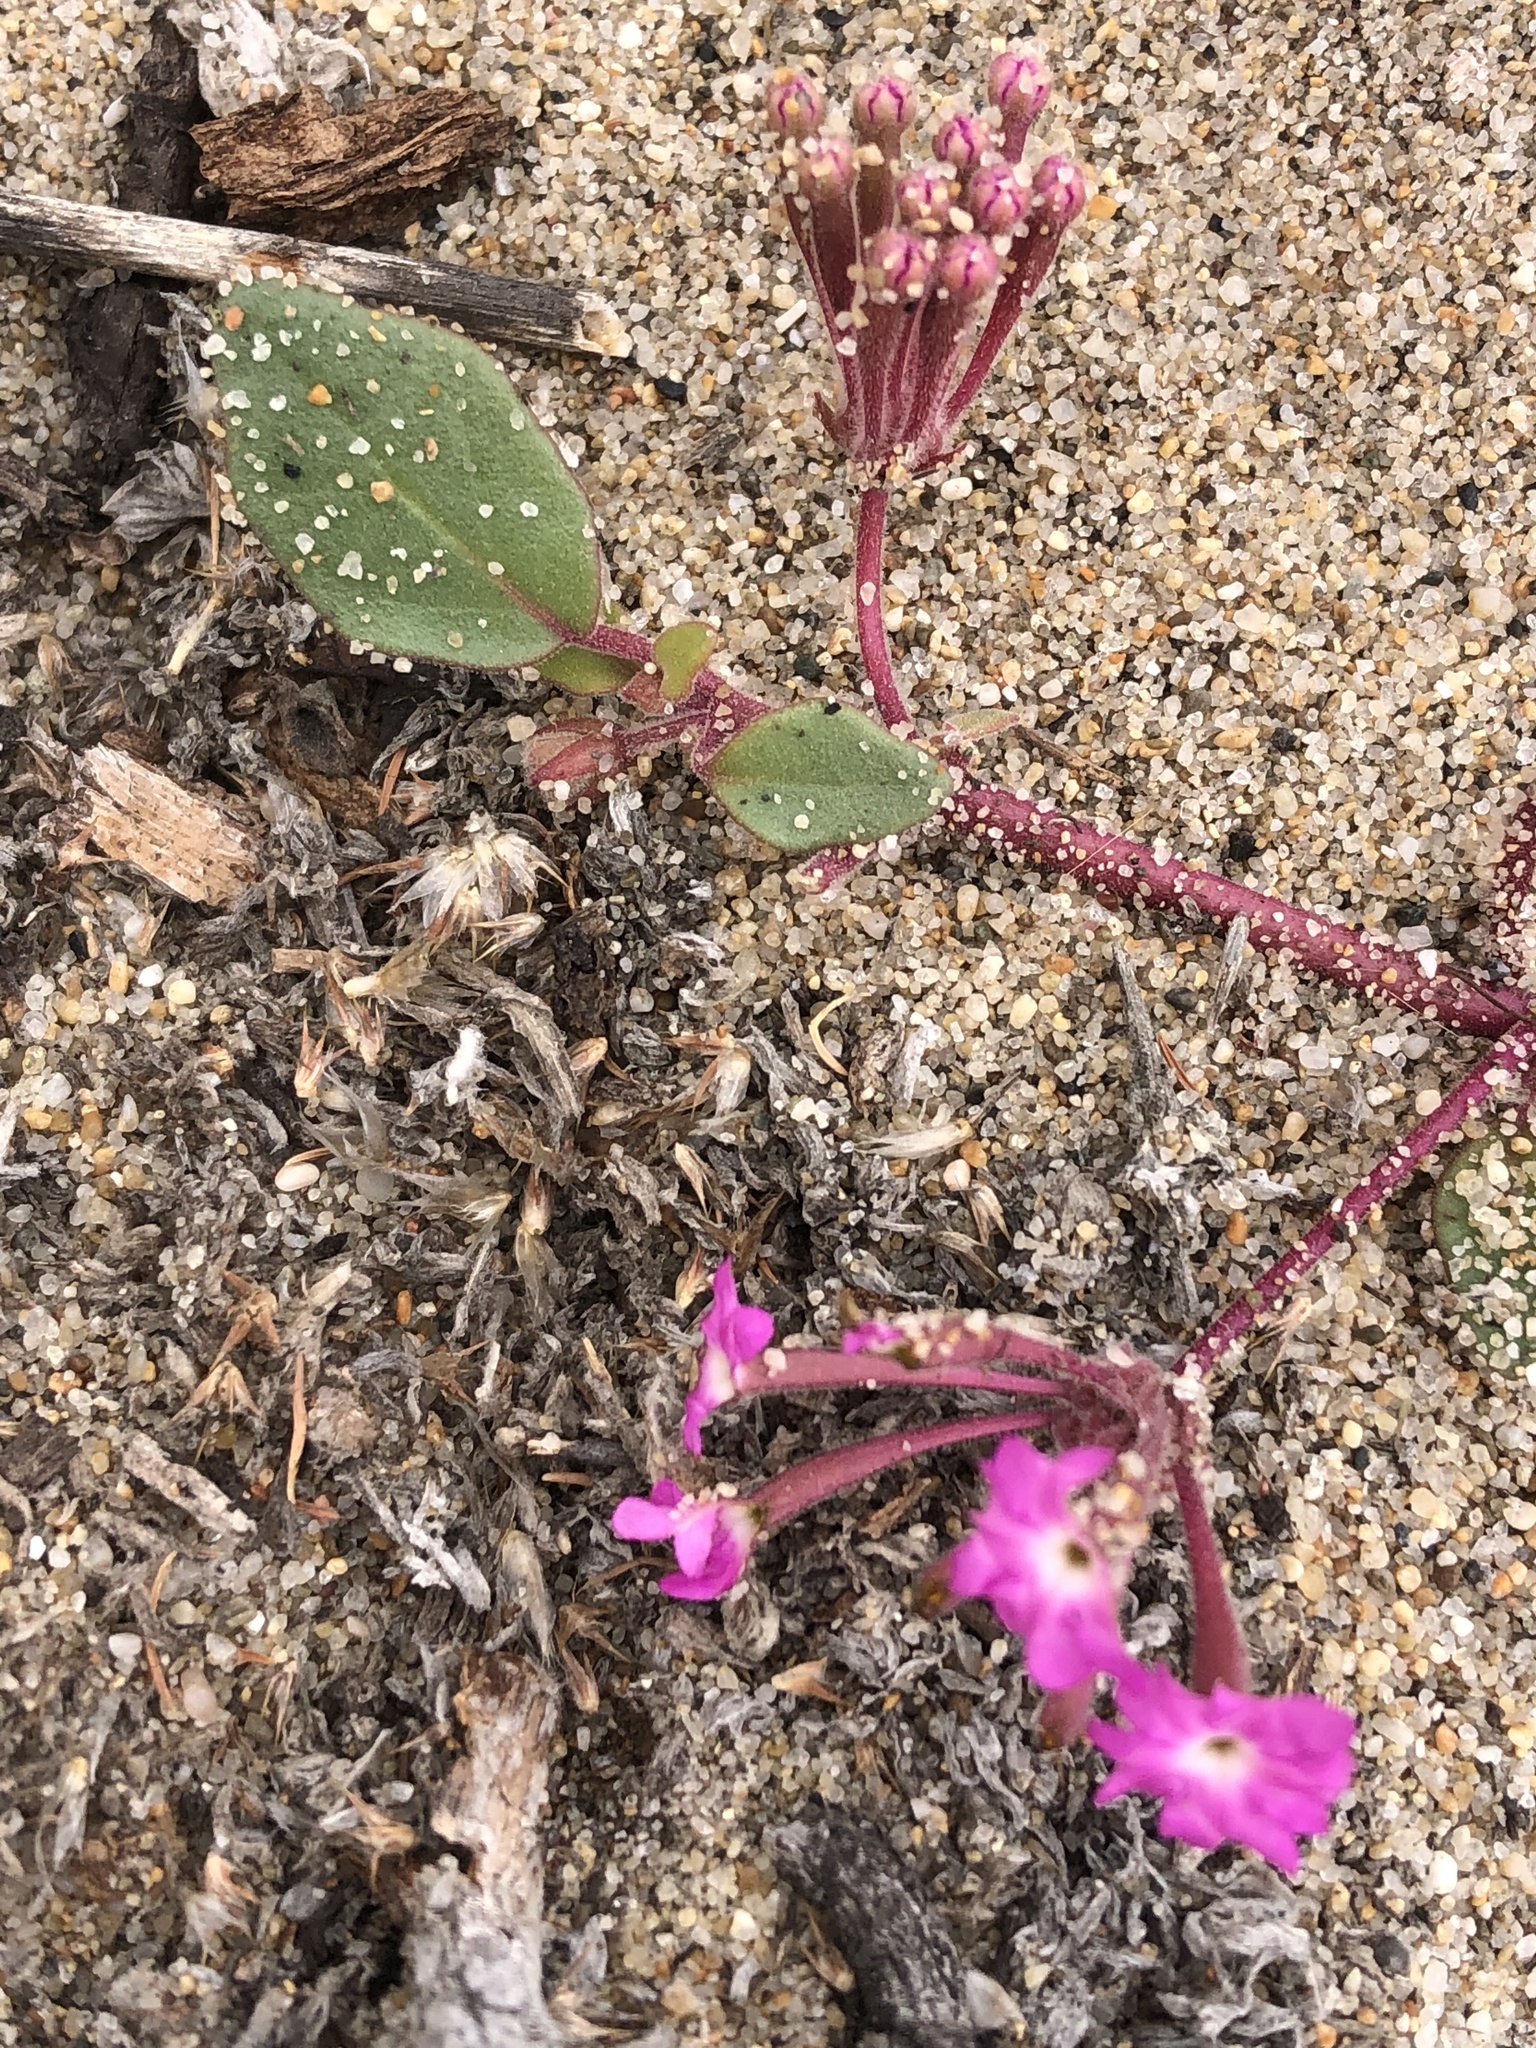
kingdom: Plantae
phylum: Tracheophyta
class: Magnoliopsida
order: Caryophyllales
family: Nyctaginaceae
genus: Abronia
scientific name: Abronia umbellata
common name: Sand-verbena
